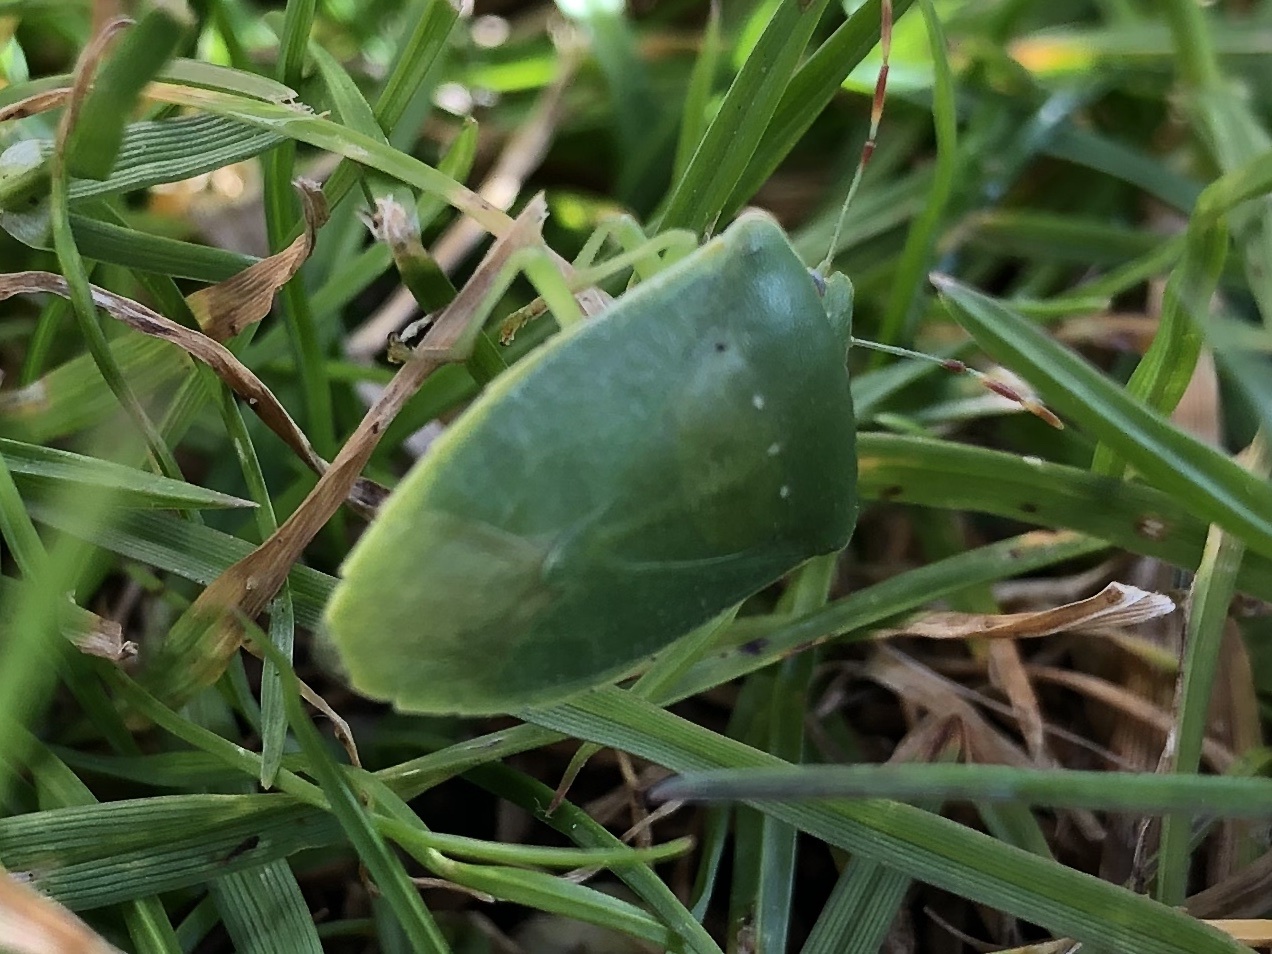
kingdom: Animalia
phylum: Arthropoda
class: Insecta
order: Hemiptera
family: Pentatomidae
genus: Nezara
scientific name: Nezara viridula
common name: Southern green stink bug
